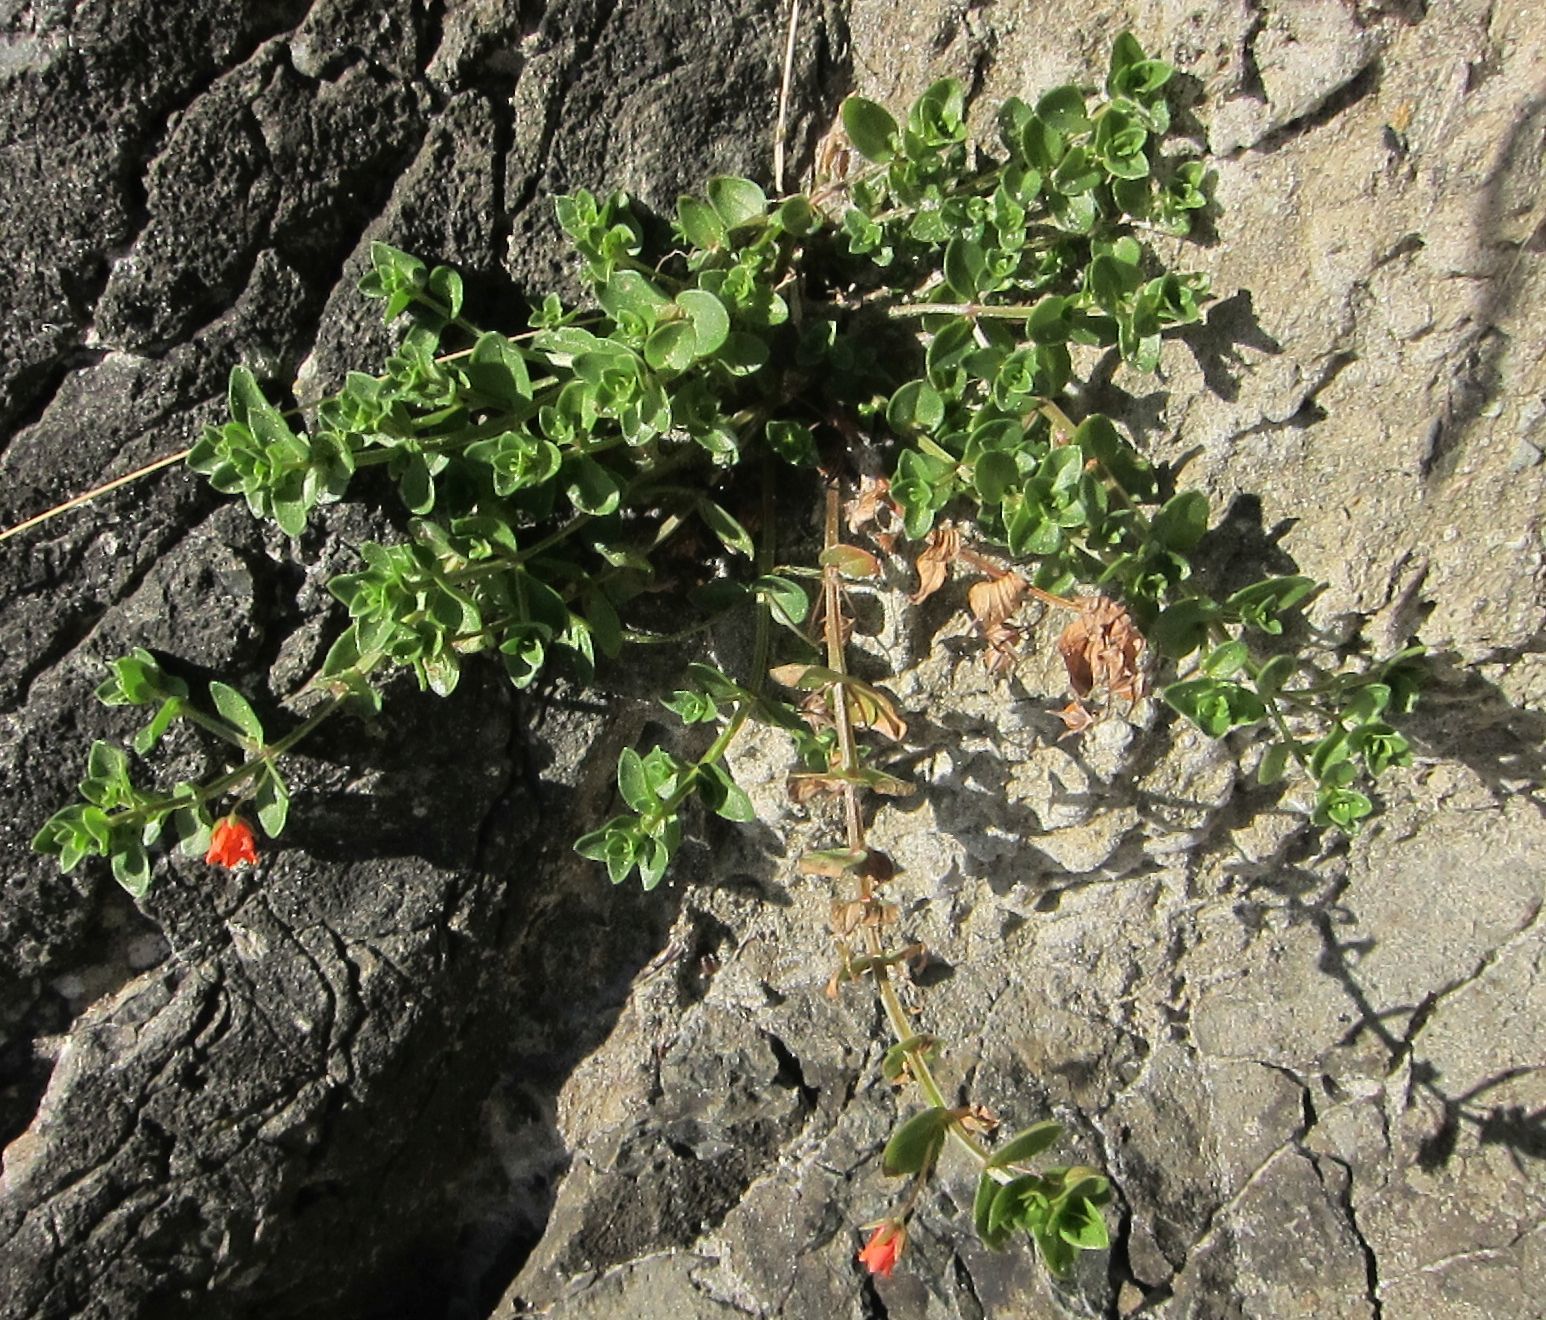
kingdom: Plantae
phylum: Tracheophyta
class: Magnoliopsida
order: Ericales
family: Primulaceae
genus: Lysimachia
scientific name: Lysimachia arvensis
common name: Scarlet pimpernel
